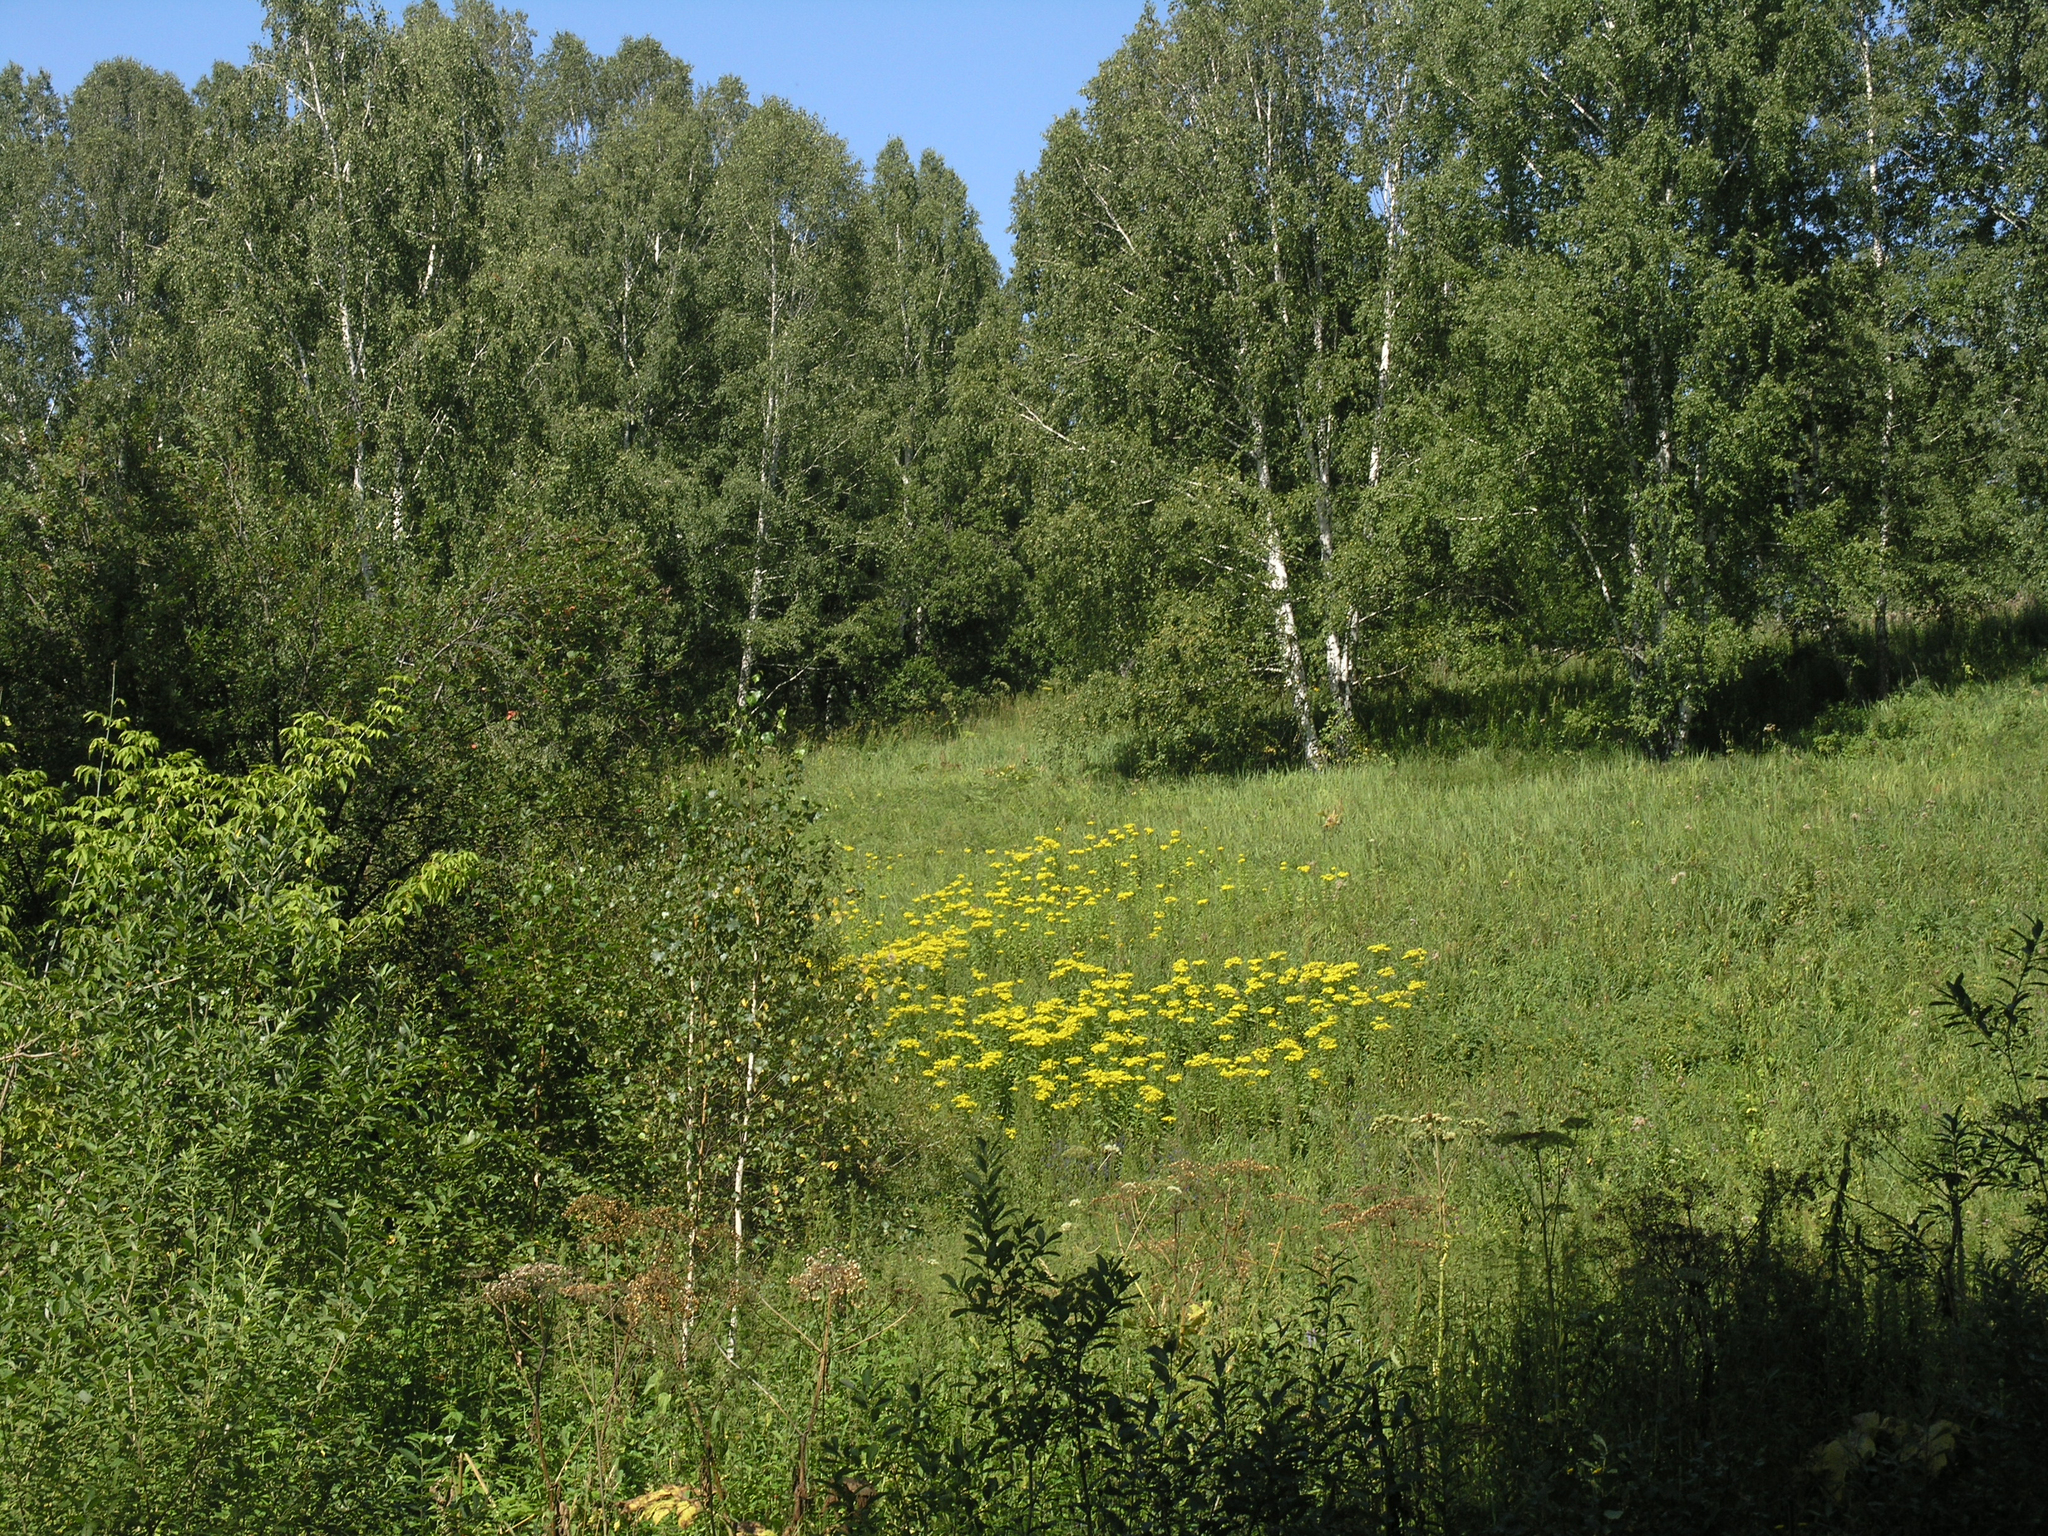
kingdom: Plantae
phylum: Tracheophyta
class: Magnoliopsida
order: Fagales
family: Betulaceae
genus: Betula
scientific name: Betula pendula
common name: Silver birch
